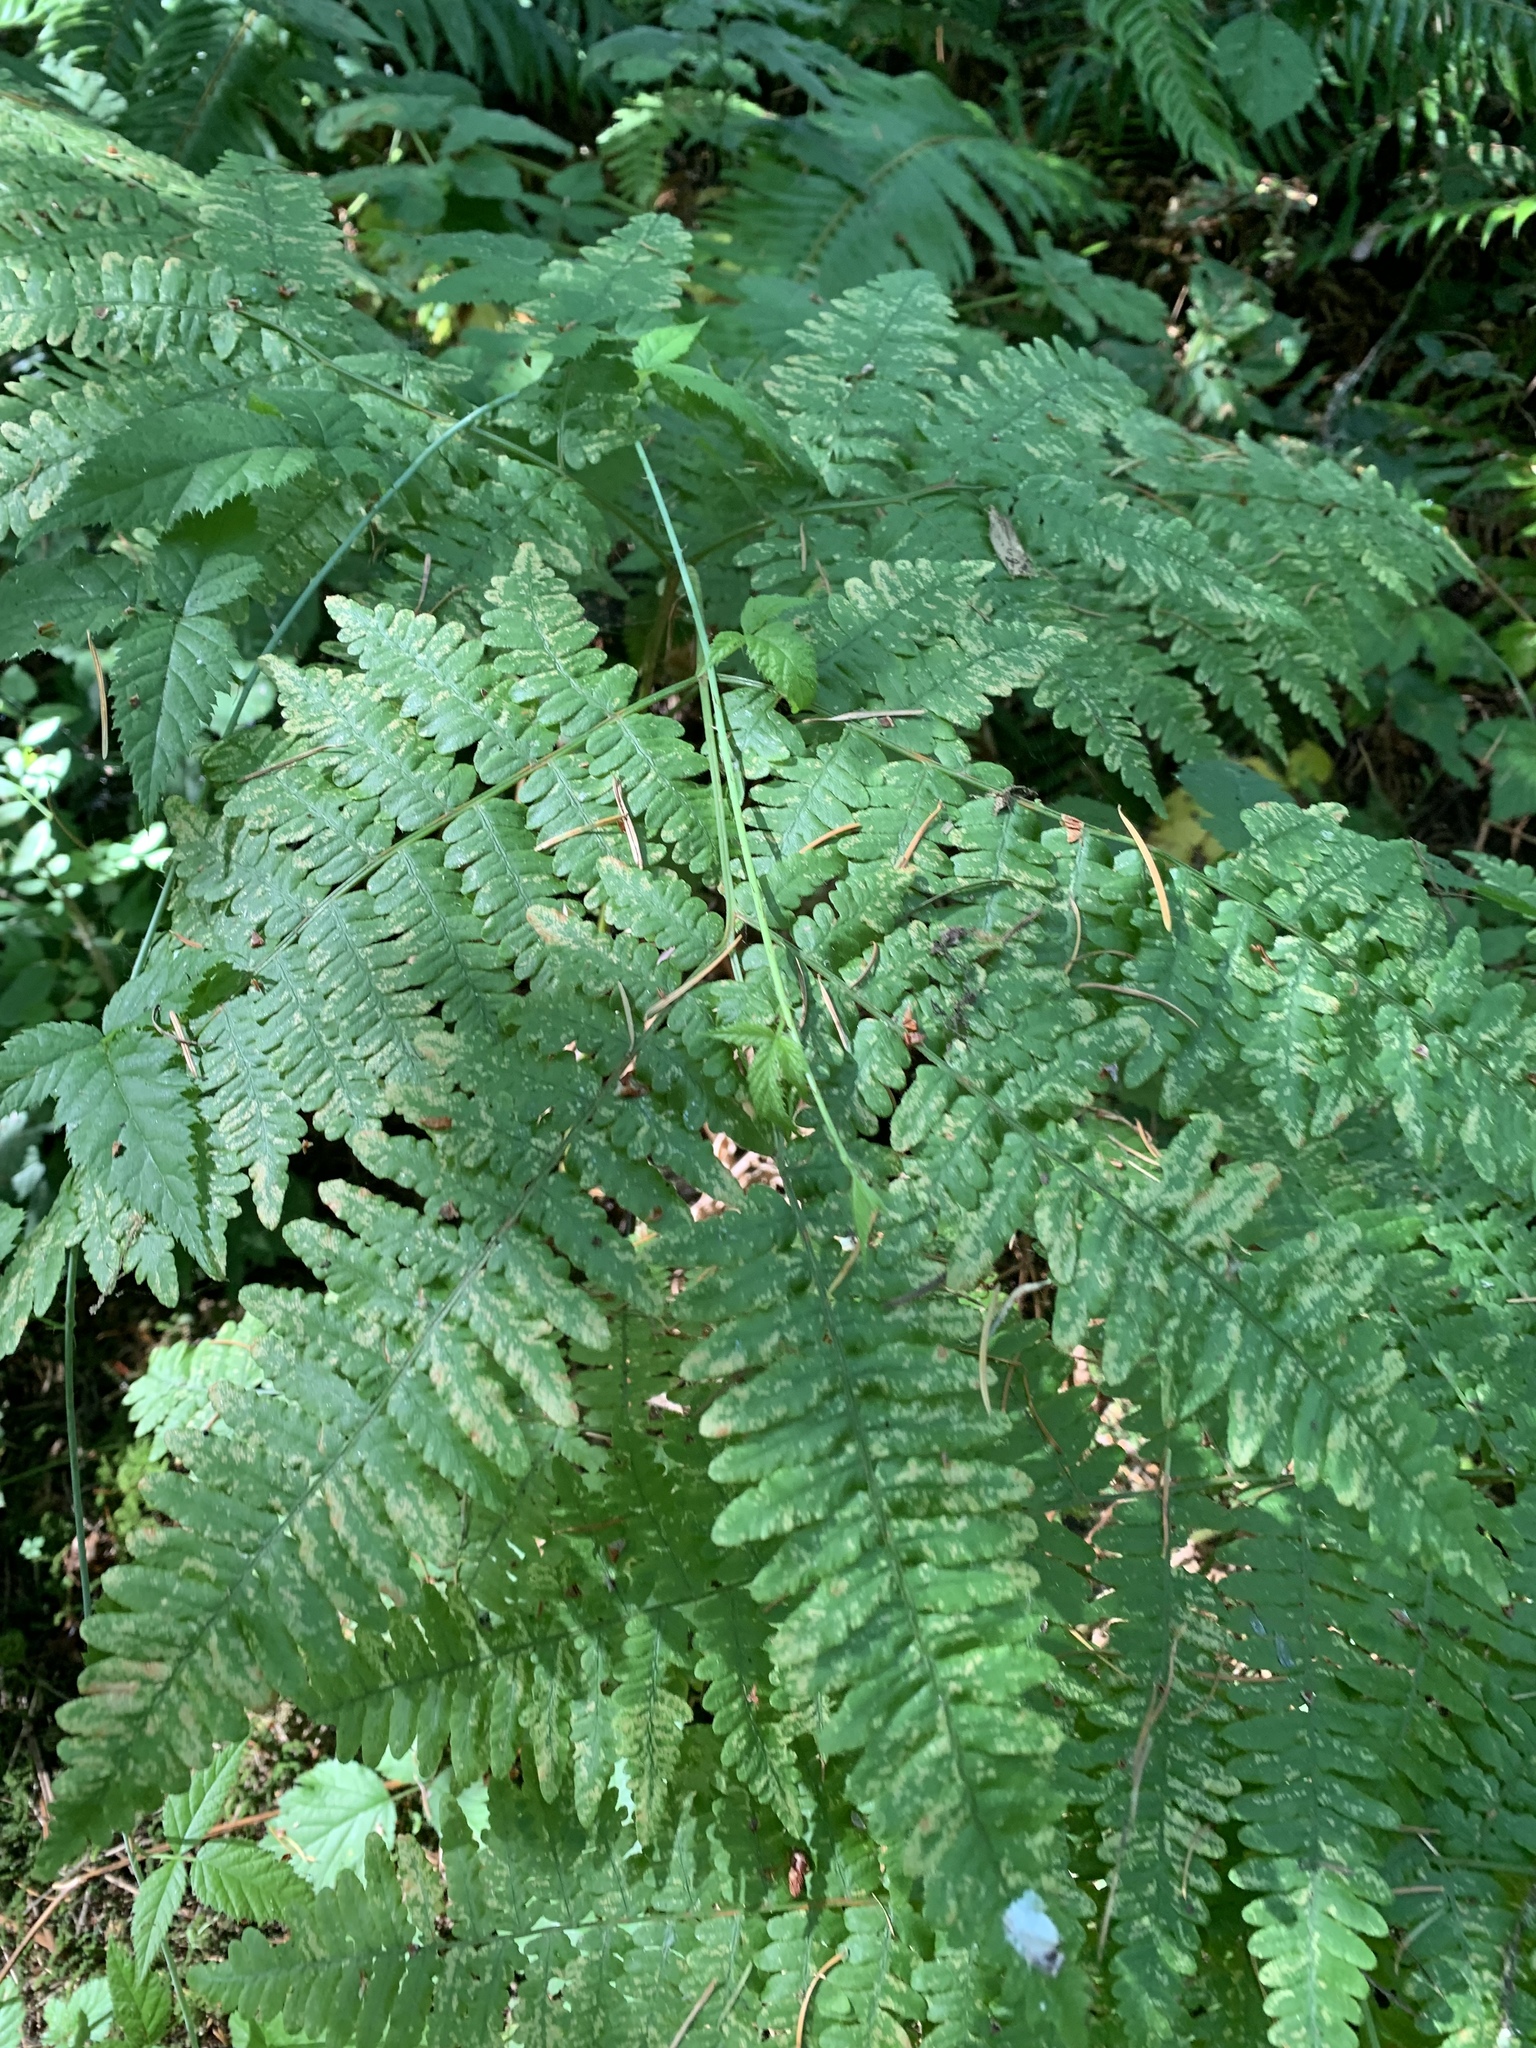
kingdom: Plantae
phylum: Tracheophyta
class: Polypodiopsida
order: Polypodiales
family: Dennstaedtiaceae
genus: Pteridium
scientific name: Pteridium aquilinum
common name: Bracken
